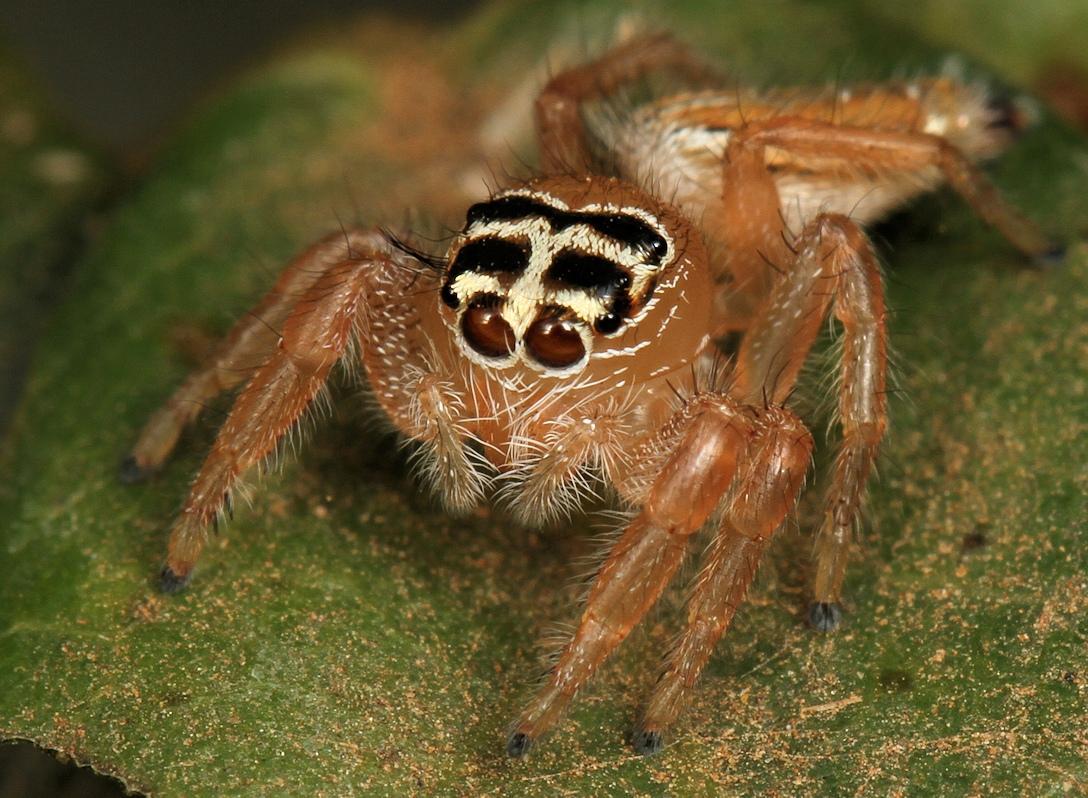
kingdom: Animalia
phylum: Arthropoda
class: Arachnida
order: Araneae
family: Salticidae
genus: Thyene
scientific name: Thyene inflata
